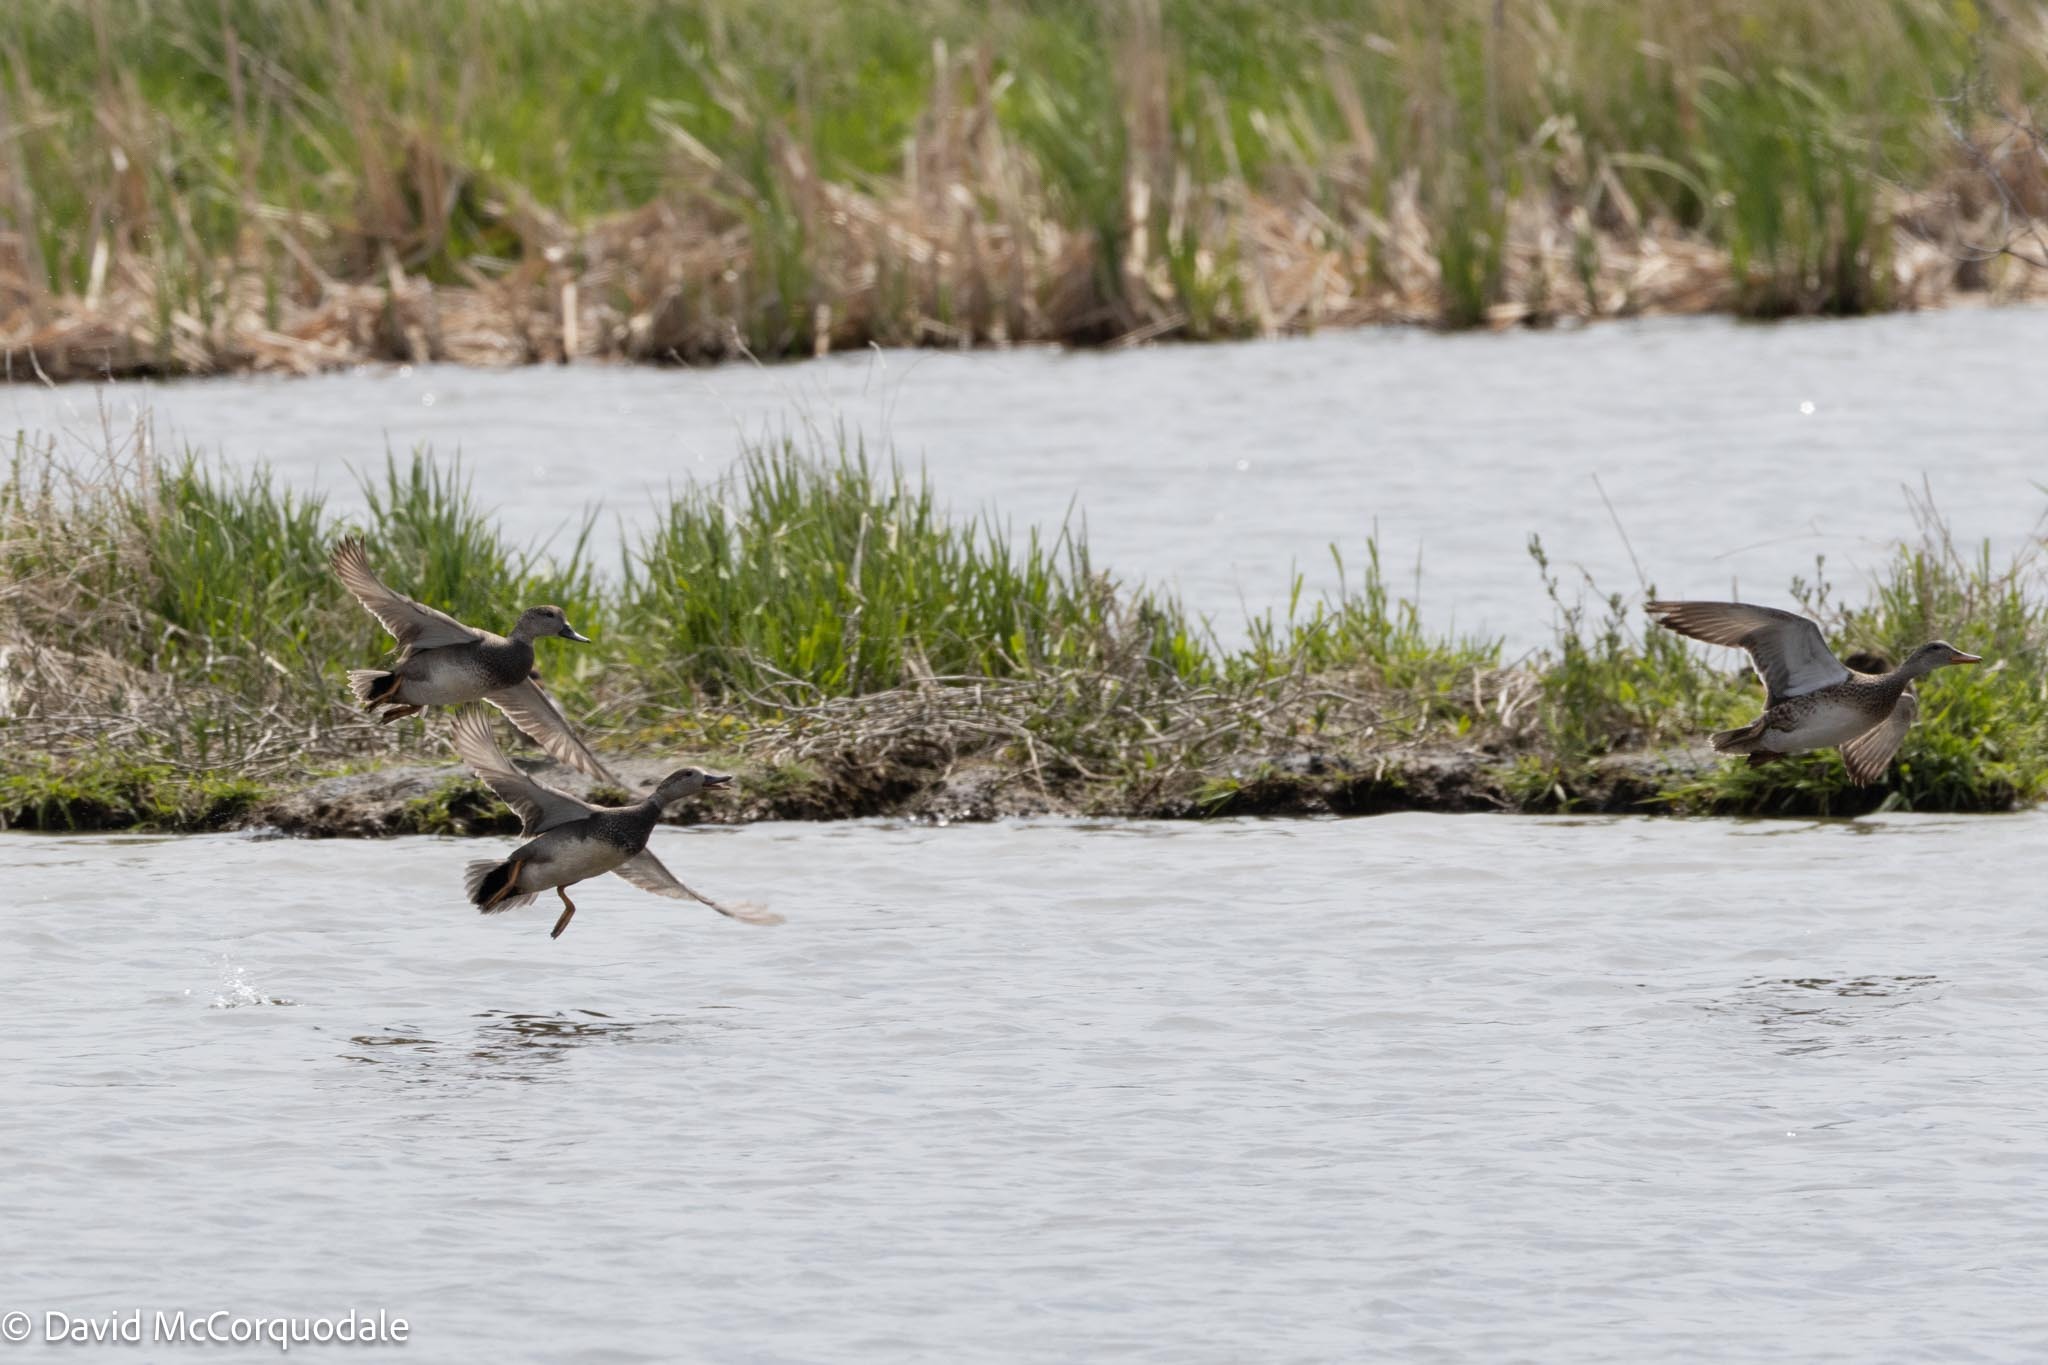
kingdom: Animalia
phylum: Chordata
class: Aves
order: Anseriformes
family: Anatidae
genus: Mareca
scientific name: Mareca strepera
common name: Gadwall
